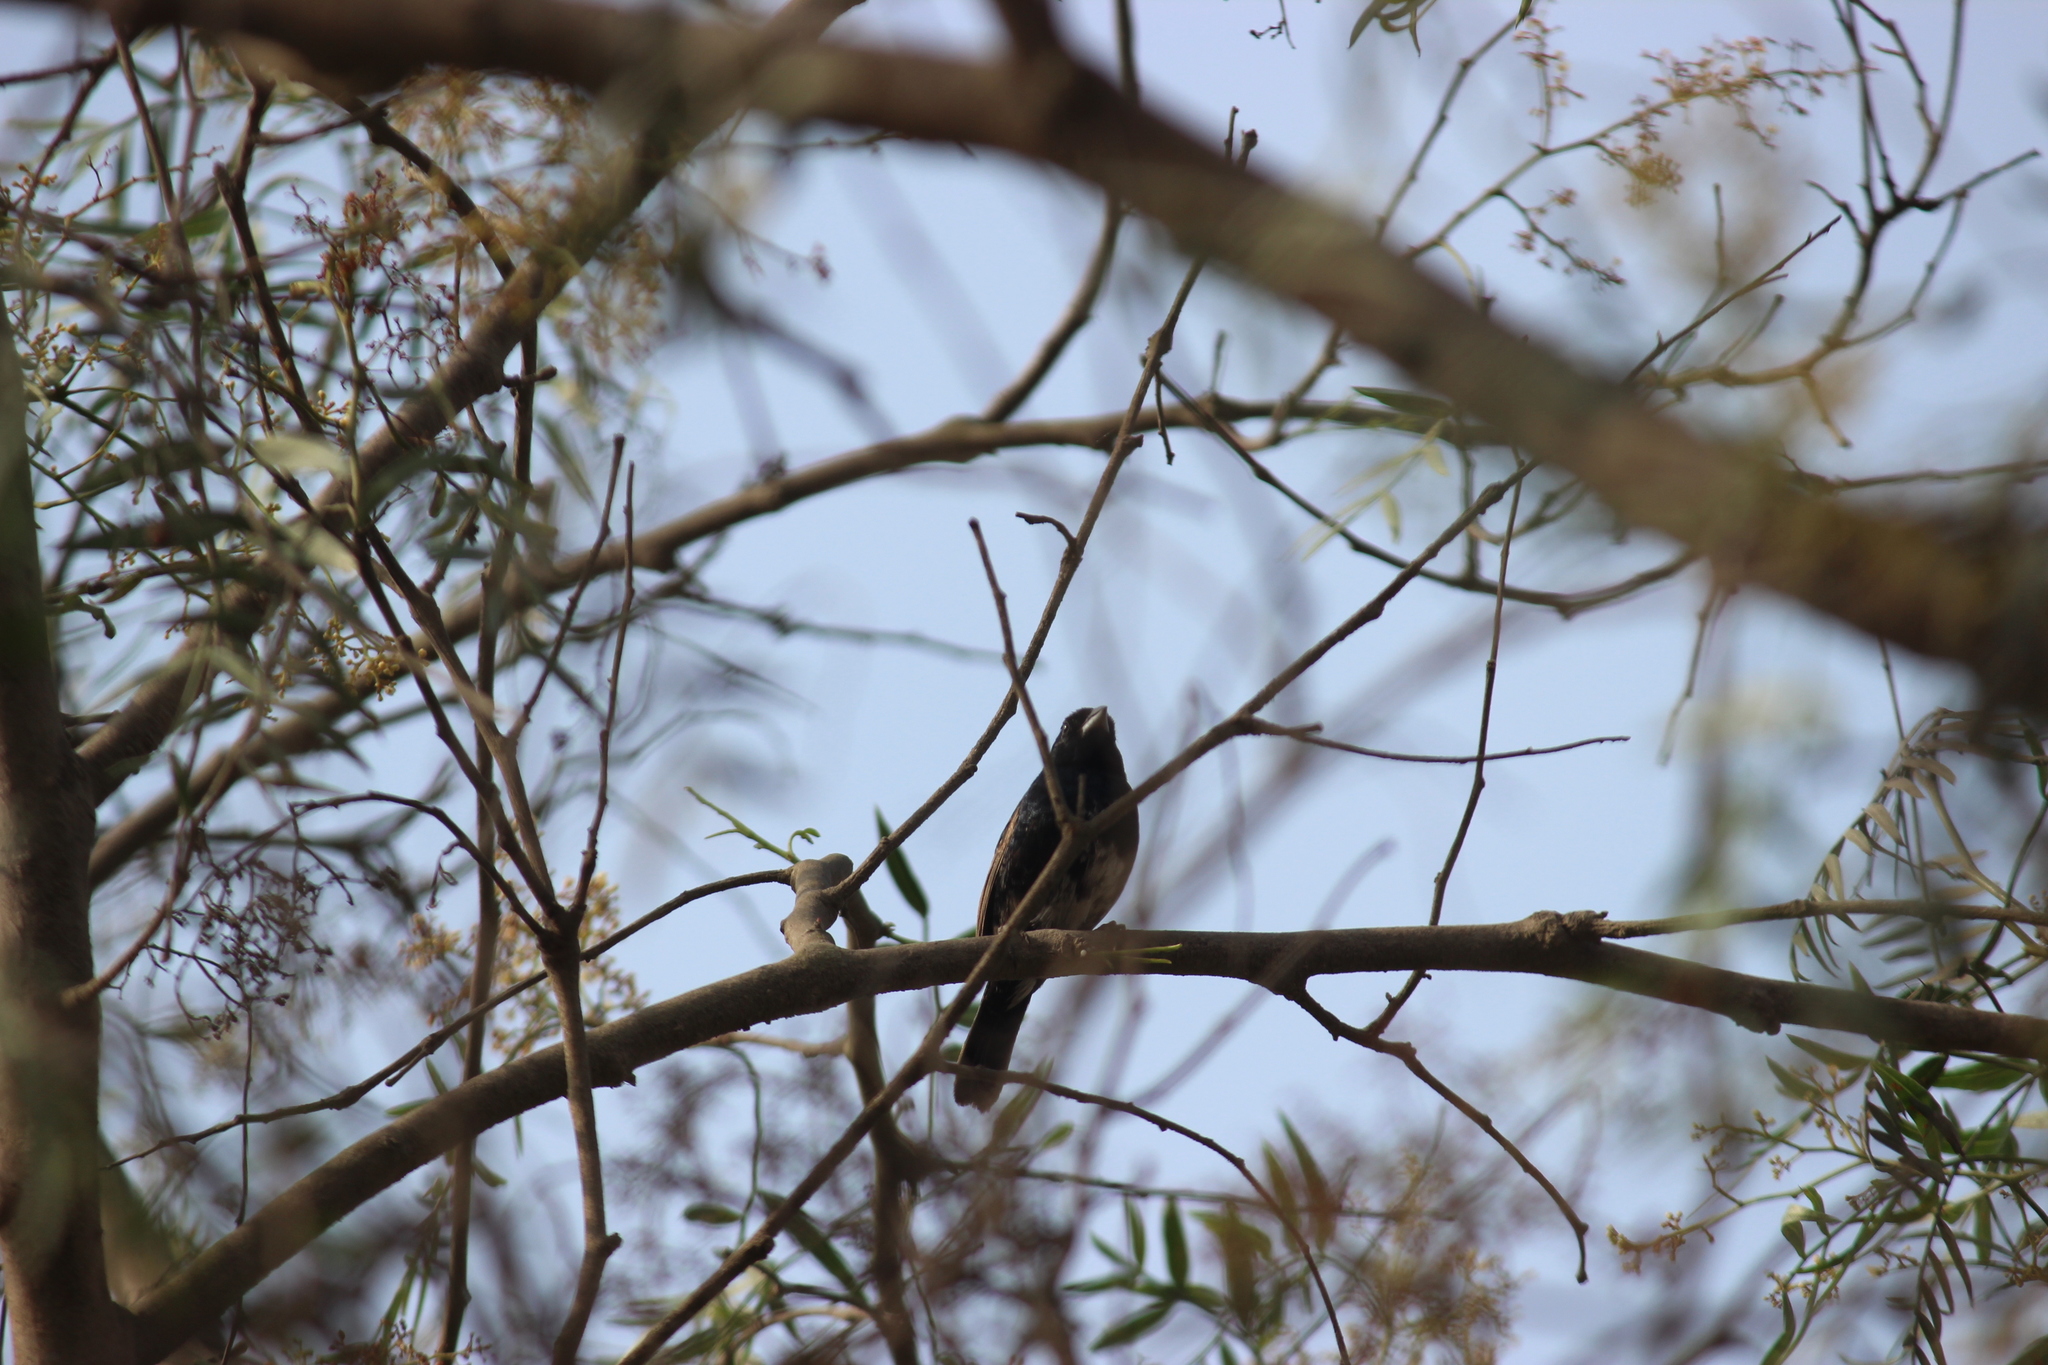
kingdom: Animalia
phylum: Chordata
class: Aves
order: Passeriformes
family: Thraupidae
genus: Volatinia
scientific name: Volatinia jacarina
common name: Blue-black grassquit
